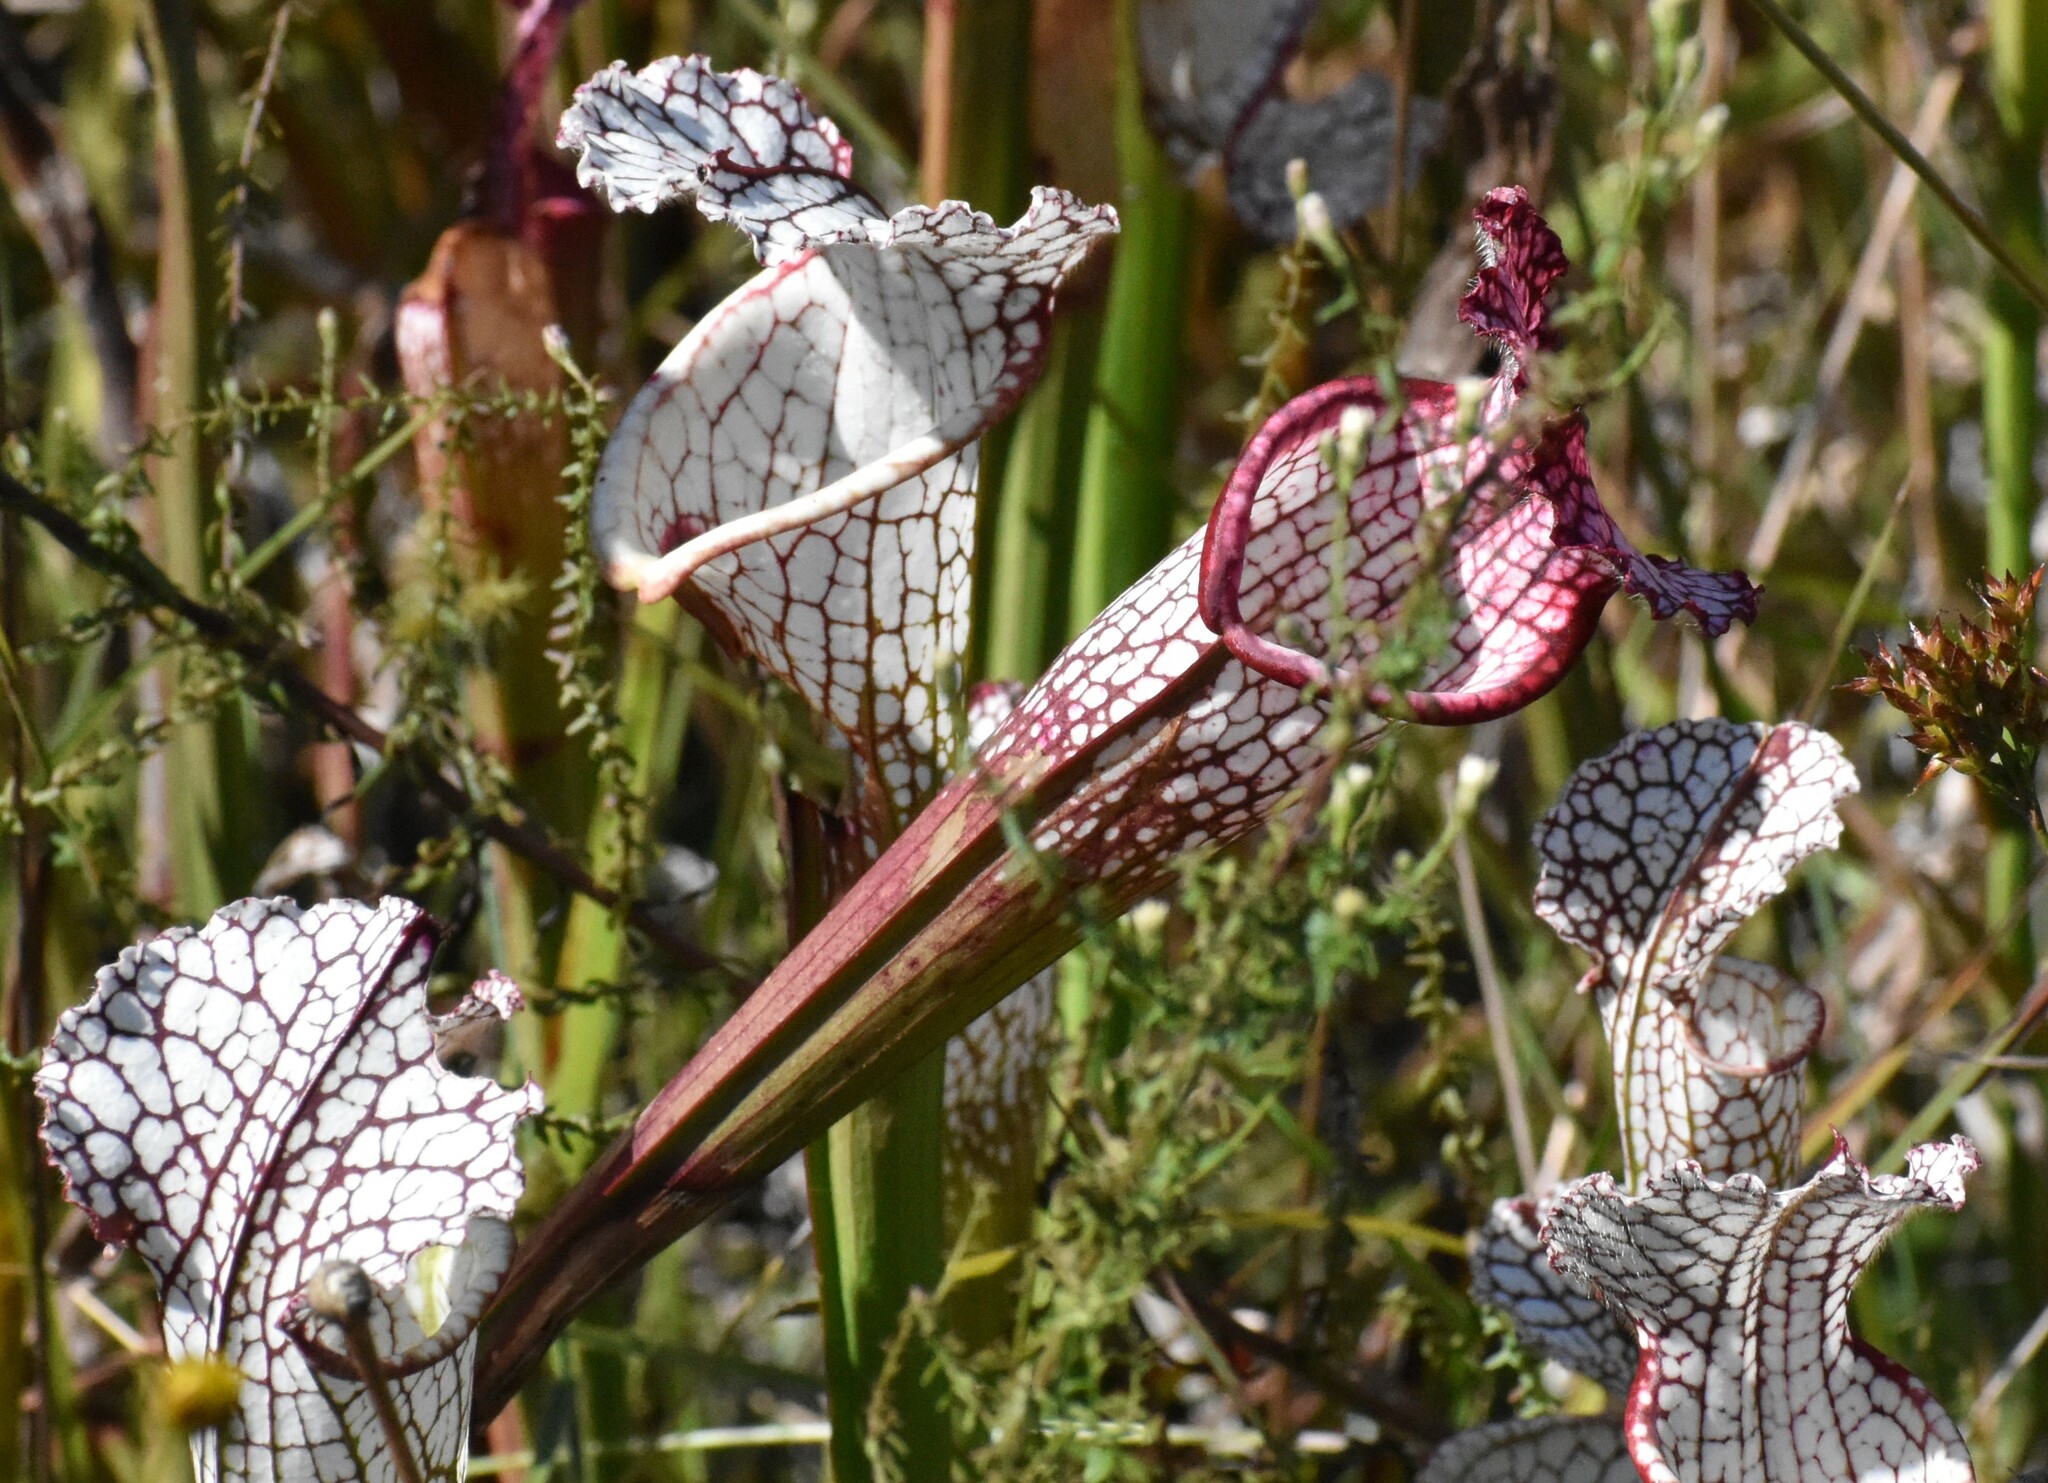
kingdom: Plantae
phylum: Tracheophyta
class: Magnoliopsida
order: Ericales
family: Sarraceniaceae
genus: Sarracenia
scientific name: Sarracenia leucophylla
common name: Purple trumpetleaf
